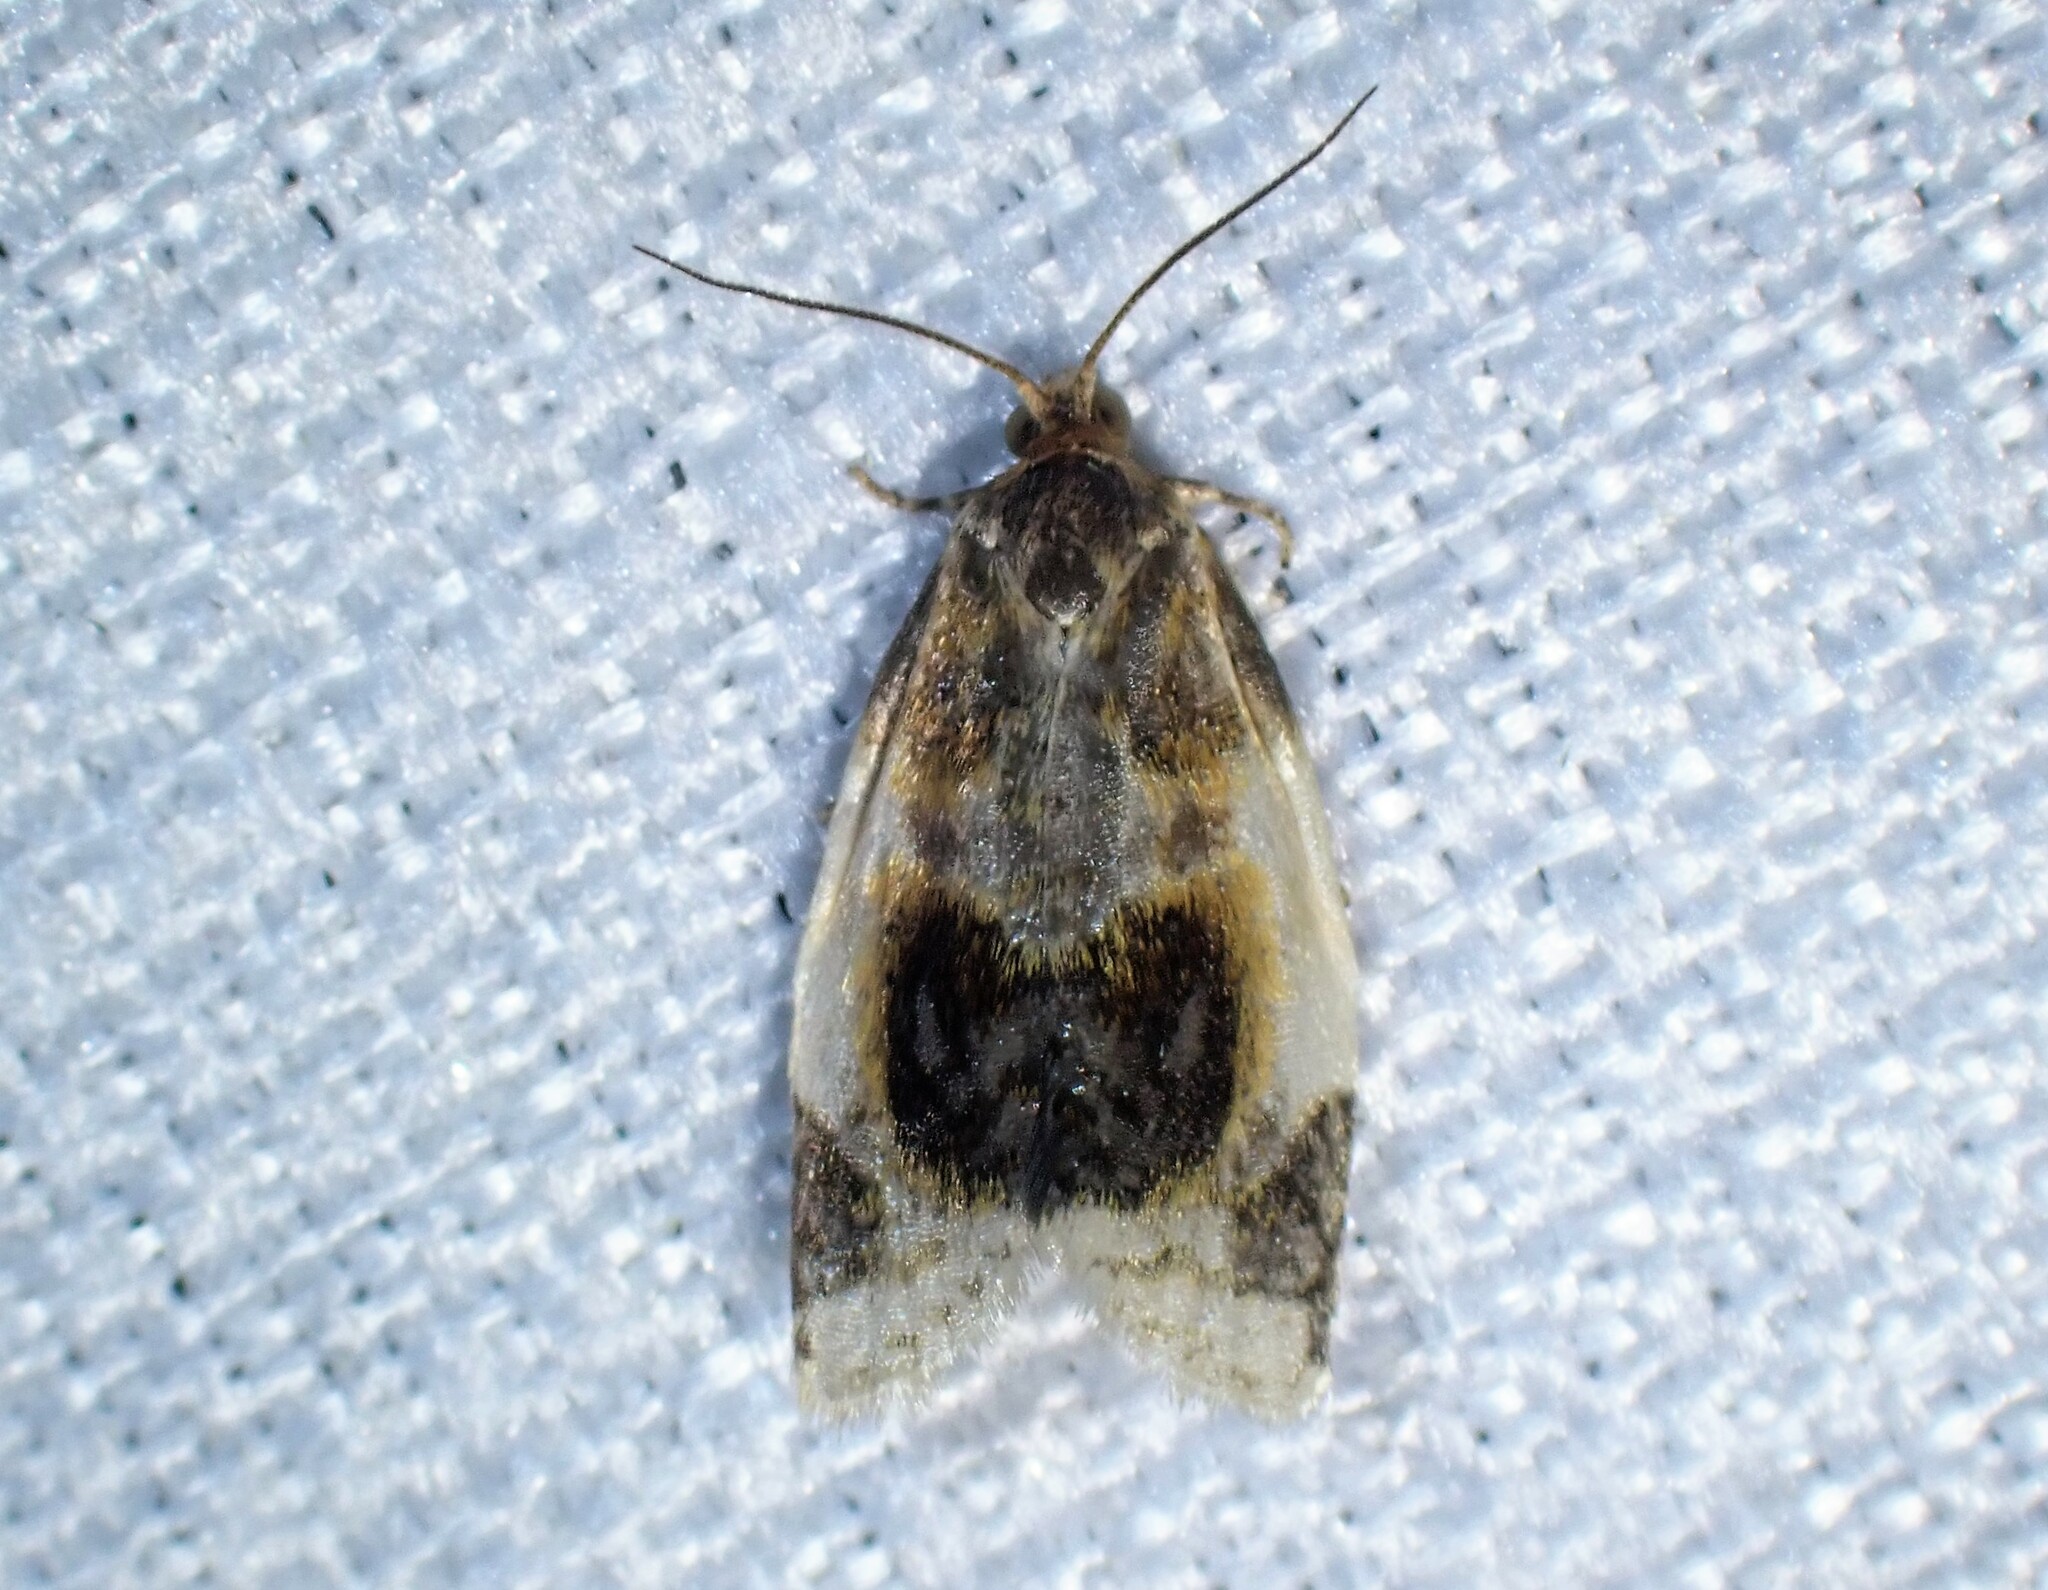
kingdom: Animalia
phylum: Arthropoda
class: Insecta
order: Lepidoptera
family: Tortricidae
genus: Clepsis
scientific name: Clepsis melaleucanus
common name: American apple tortrix
